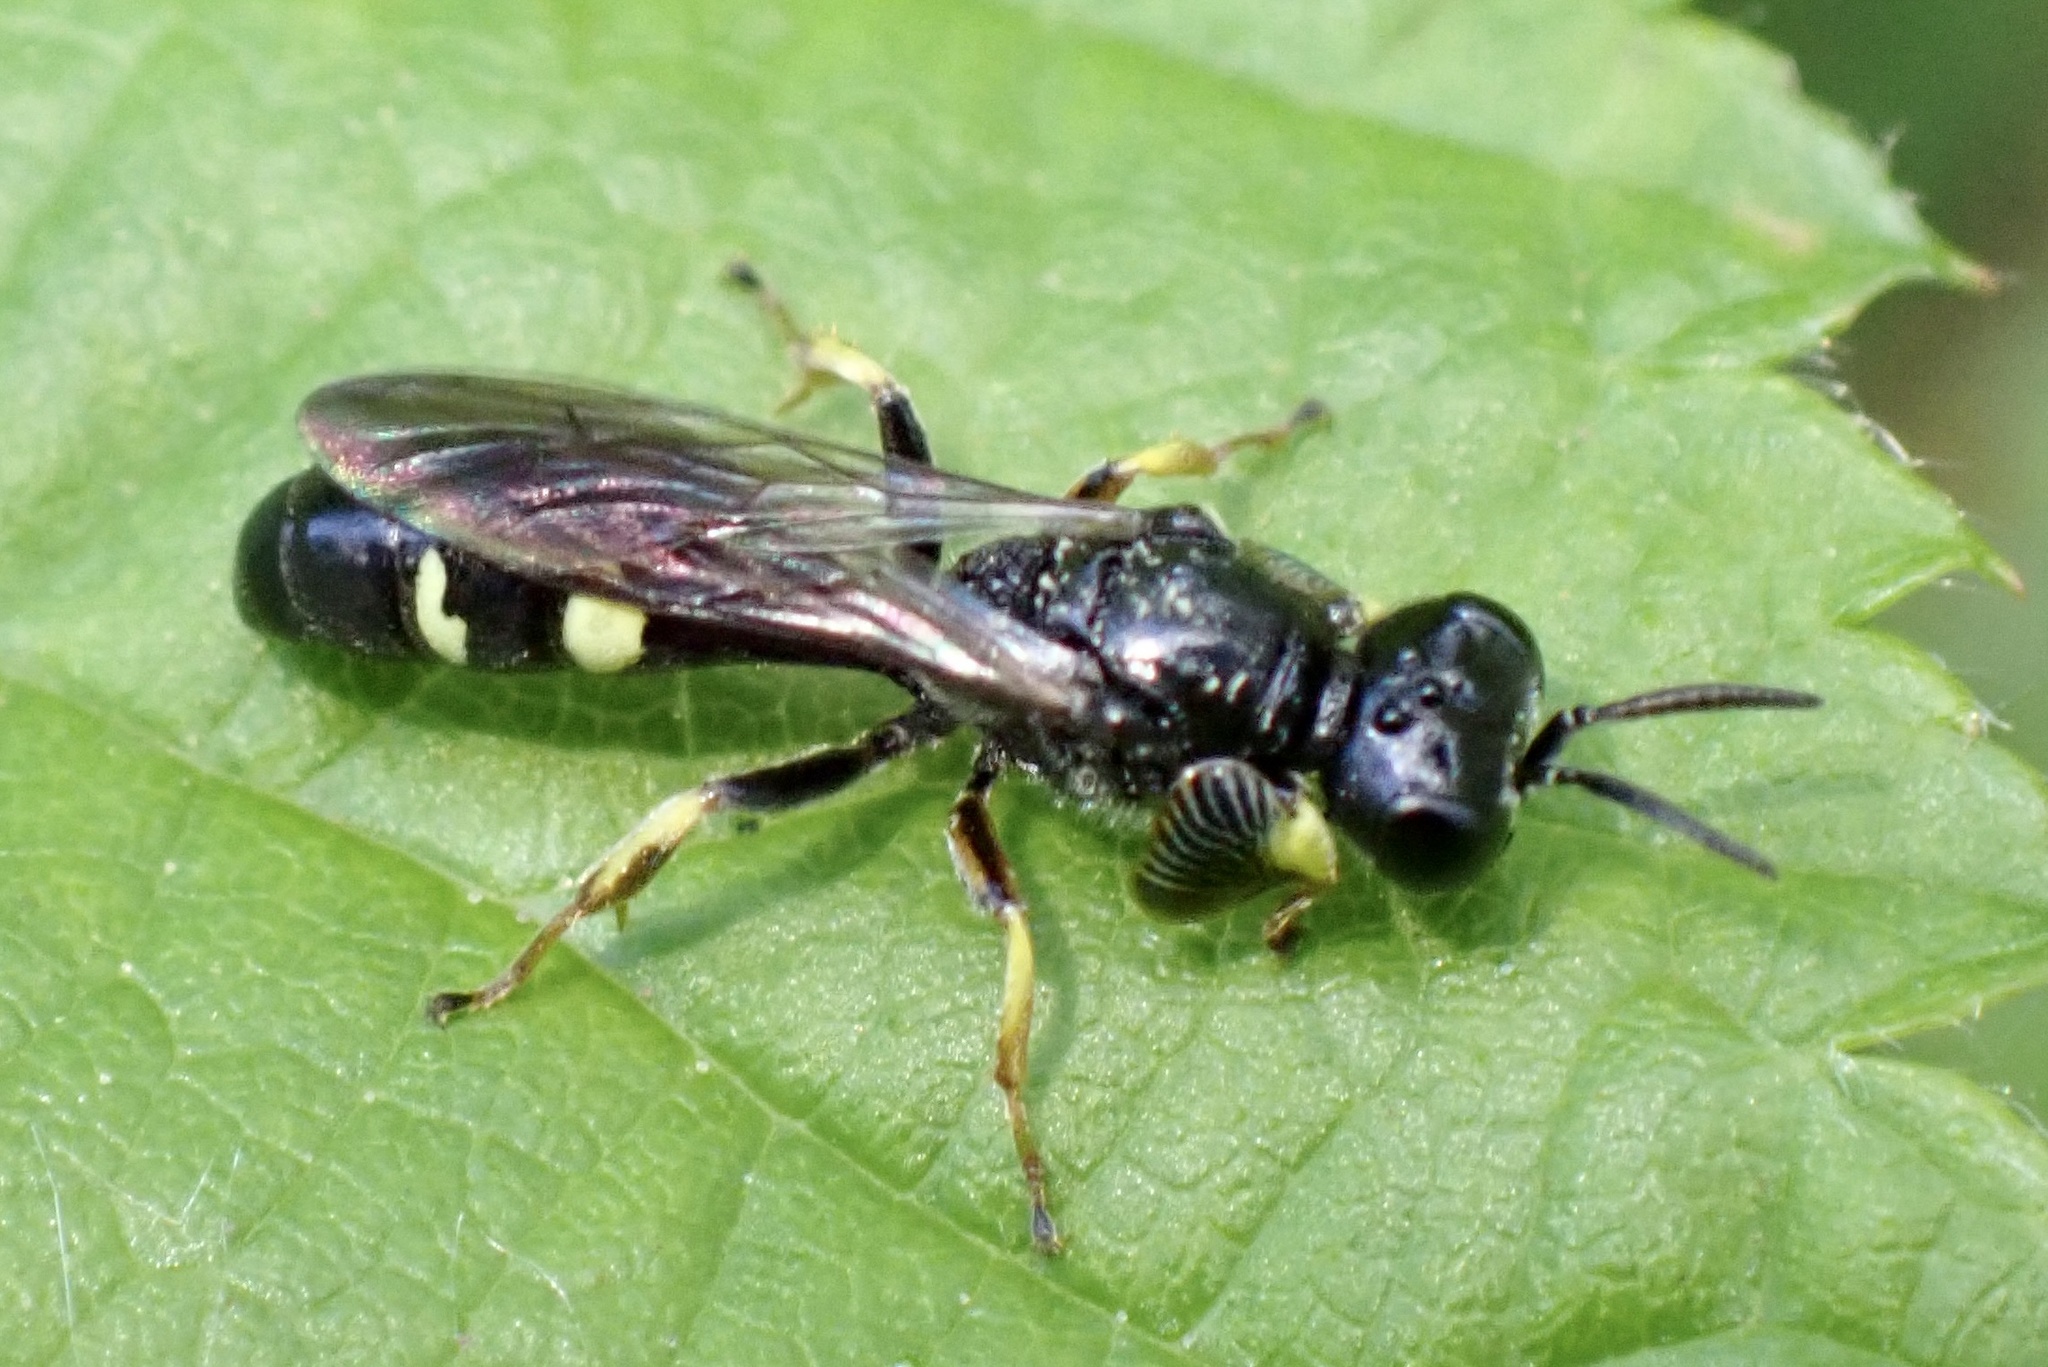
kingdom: Animalia
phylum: Arthropoda
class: Insecta
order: Hymenoptera
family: Crabronidae
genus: Crabro
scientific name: Crabro scutellatus
